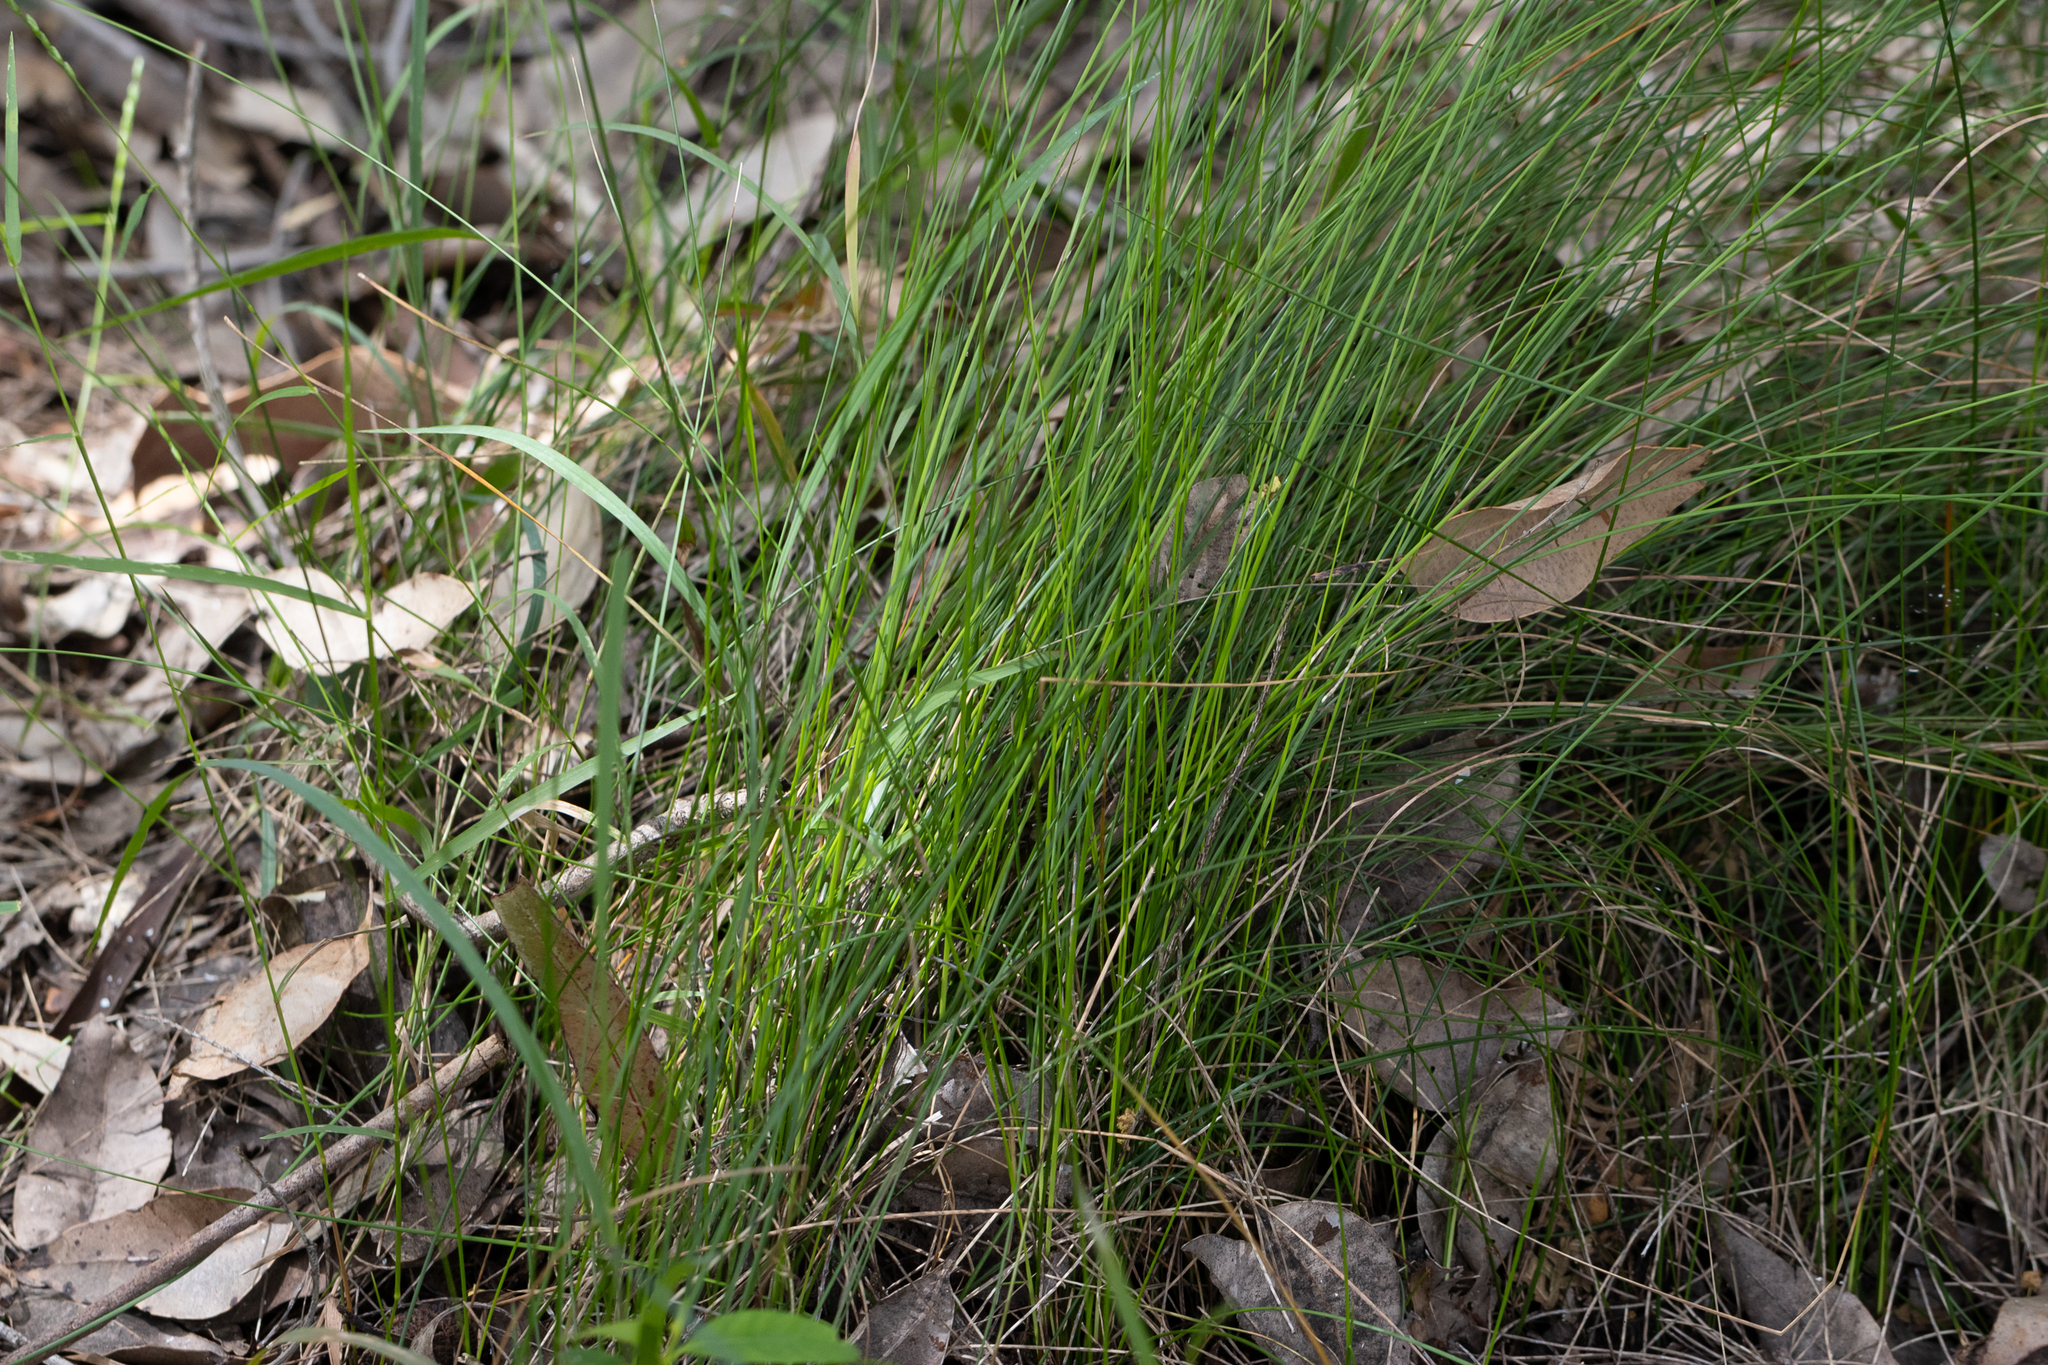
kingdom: Plantae
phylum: Tracheophyta
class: Liliopsida
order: Poales
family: Poaceae
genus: Tetrarrhena
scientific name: Tetrarrhena laevis
